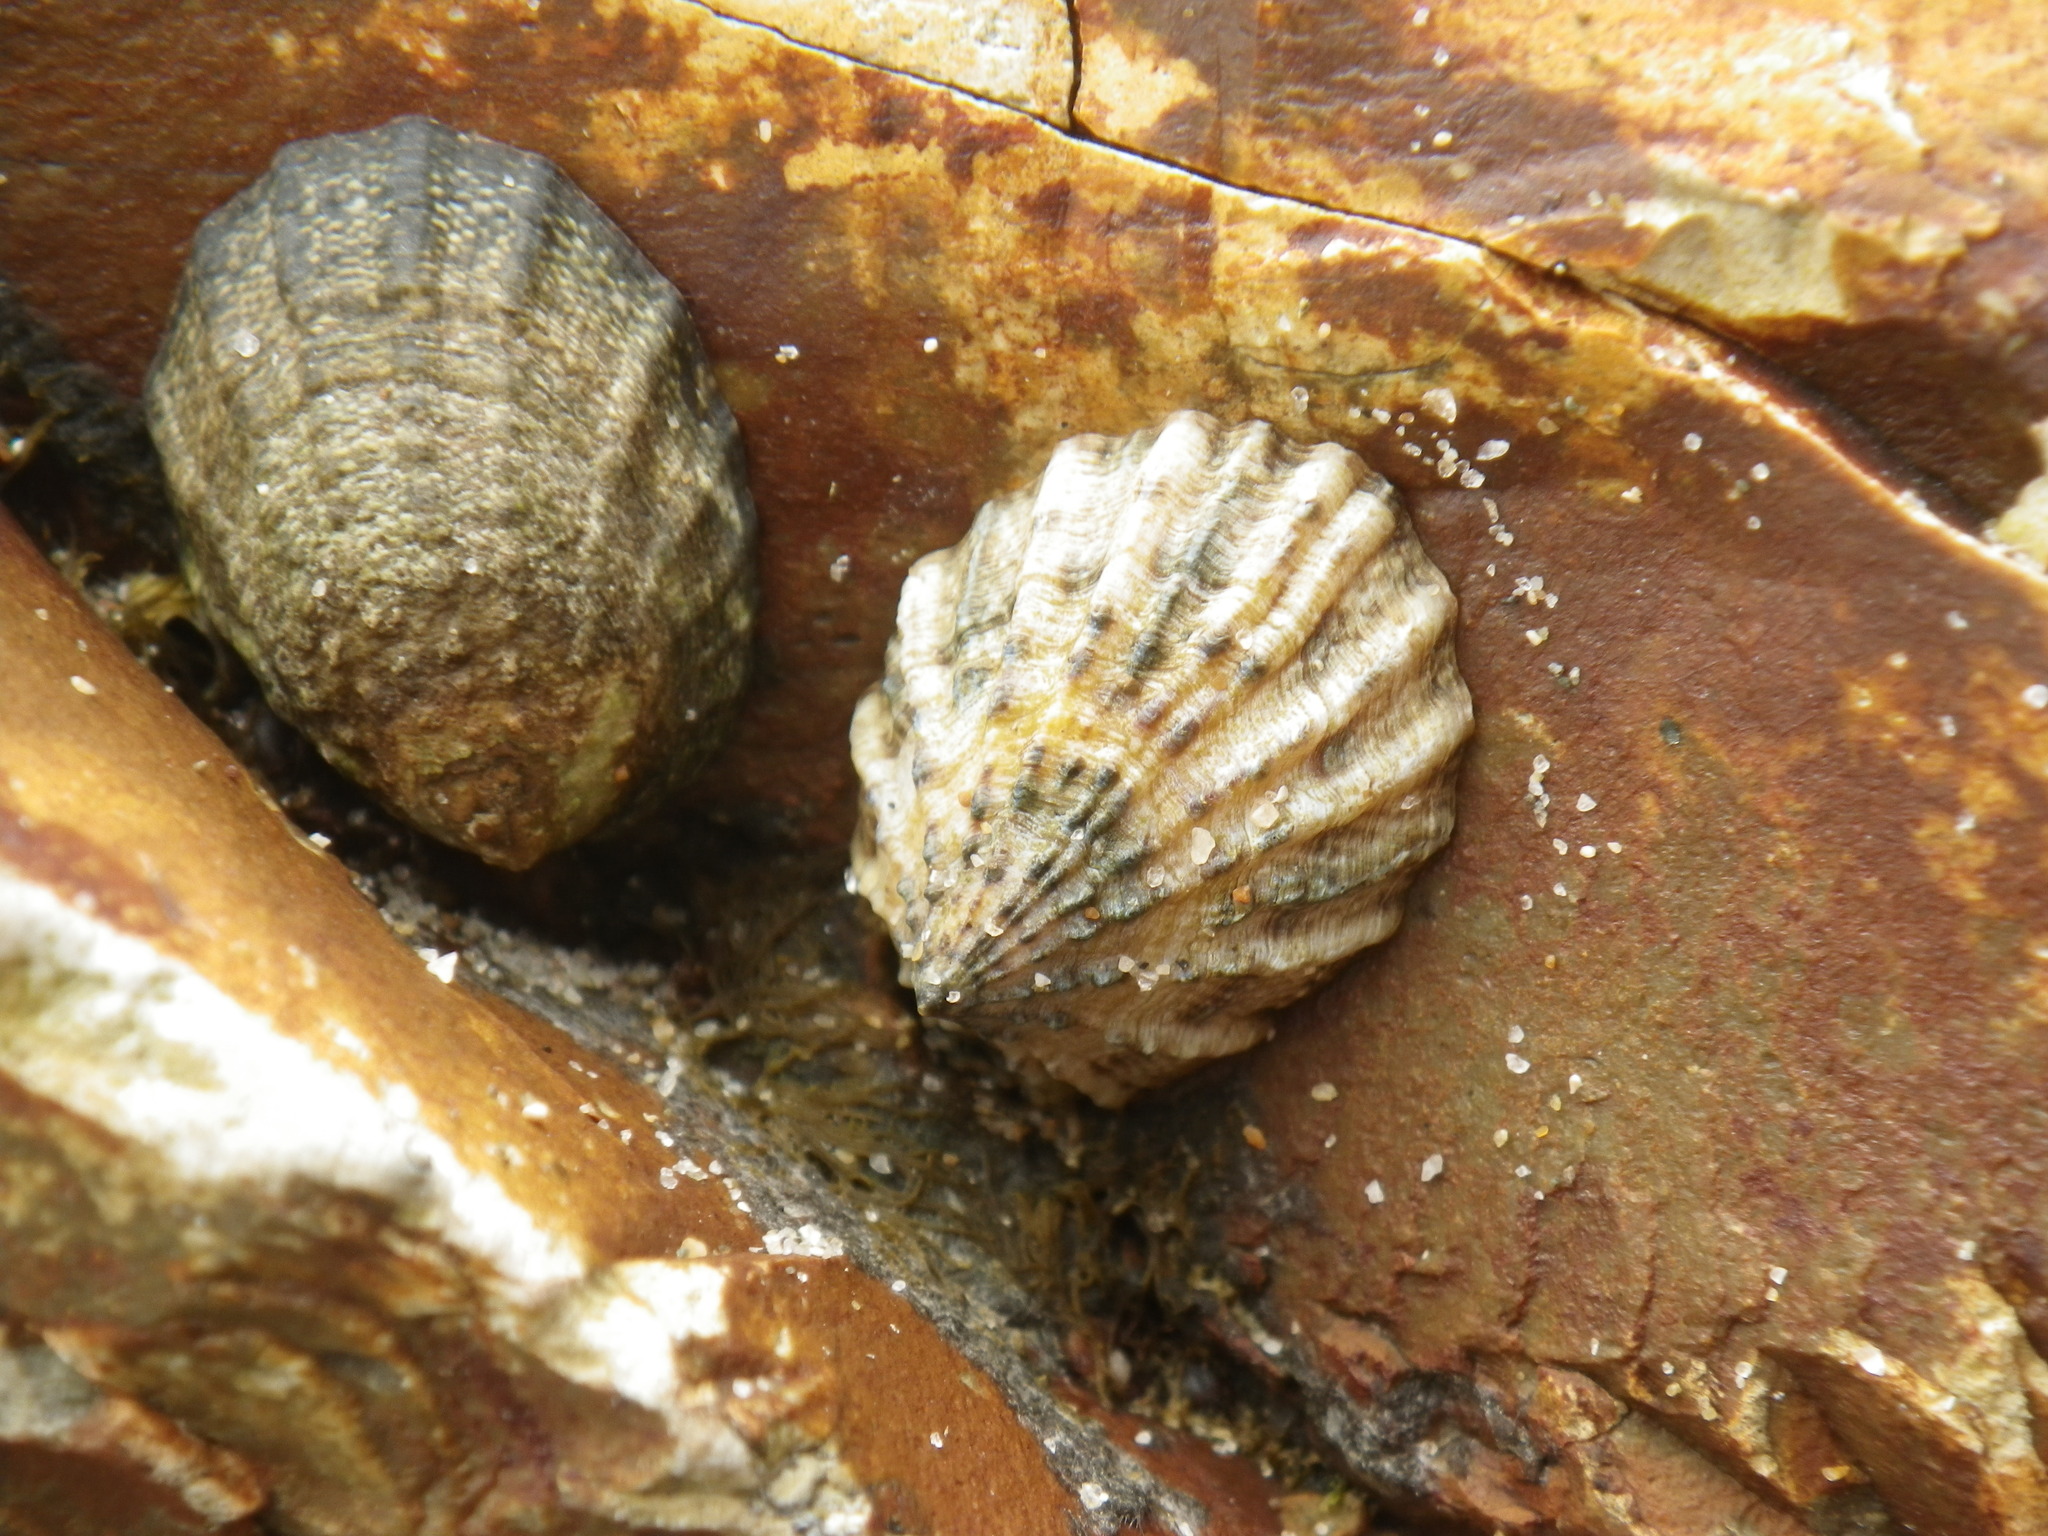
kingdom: Animalia
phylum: Mollusca
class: Gastropoda
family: Lottiidae
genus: Lottia
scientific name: Lottia scabra
